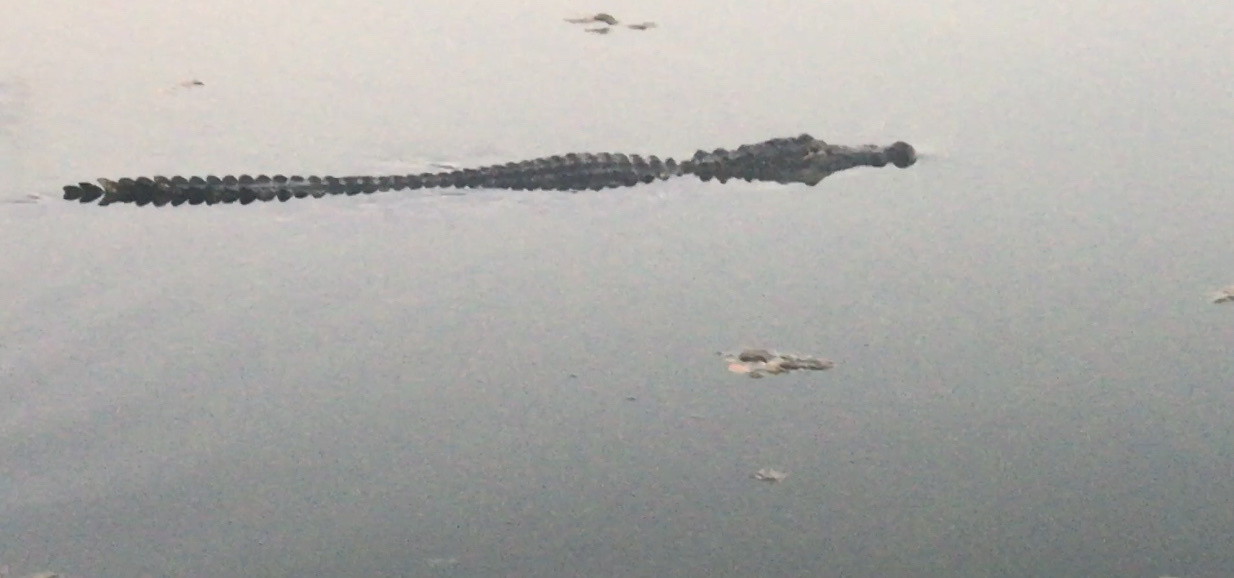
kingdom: Animalia
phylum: Chordata
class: Crocodylia
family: Alligatoridae
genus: Alligator
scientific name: Alligator mississippiensis
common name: American alligator
